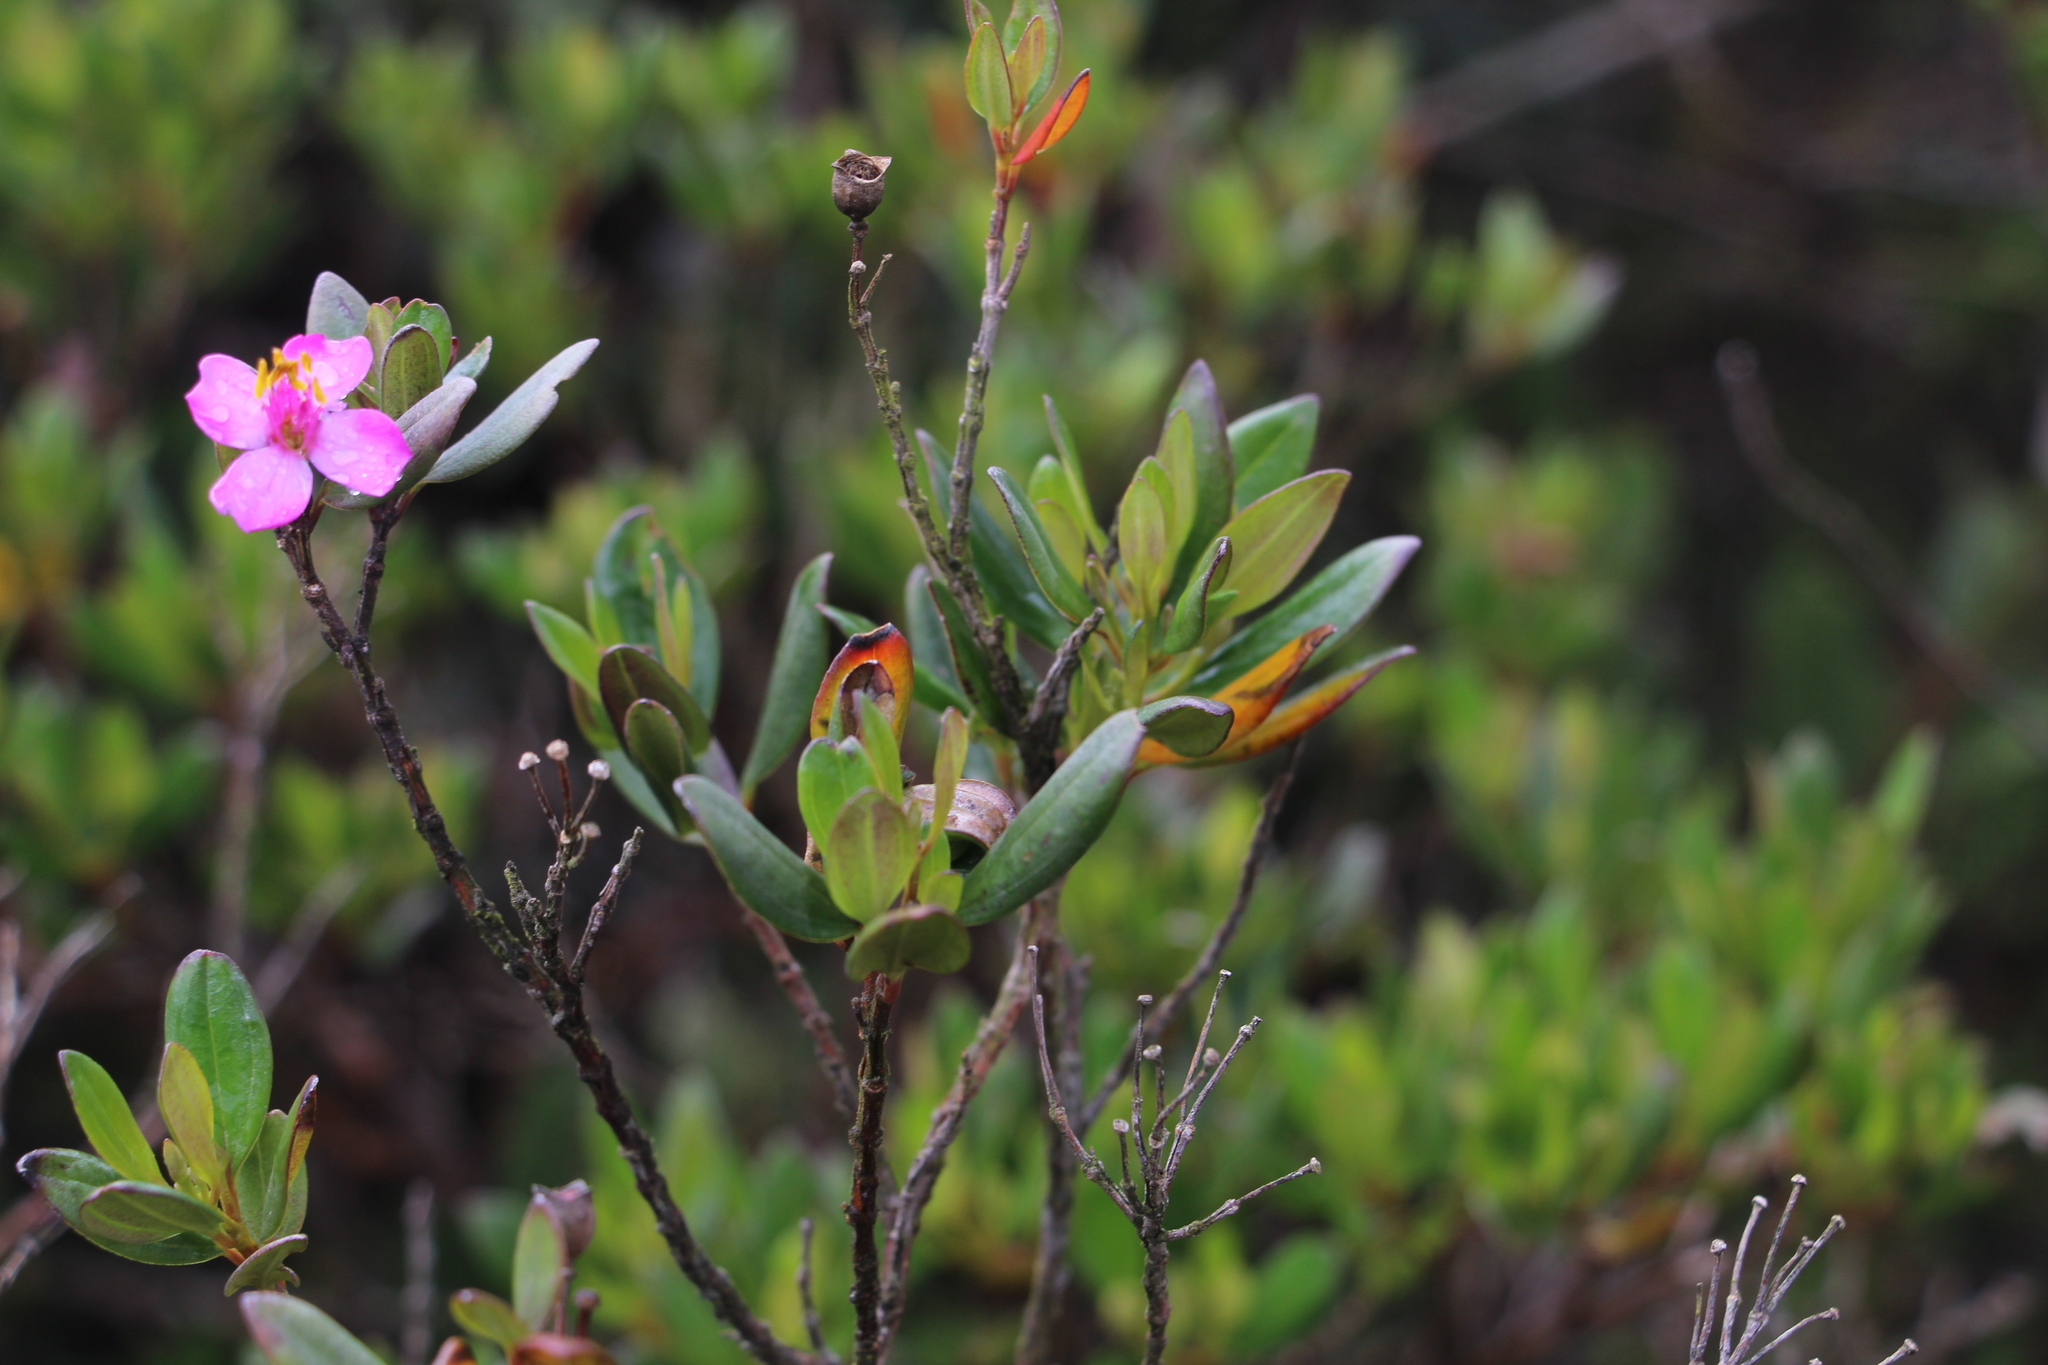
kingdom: Plantae
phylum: Tracheophyta
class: Magnoliopsida
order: Myrtales
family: Melastomataceae
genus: Bucquetia
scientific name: Bucquetia glutinosa
